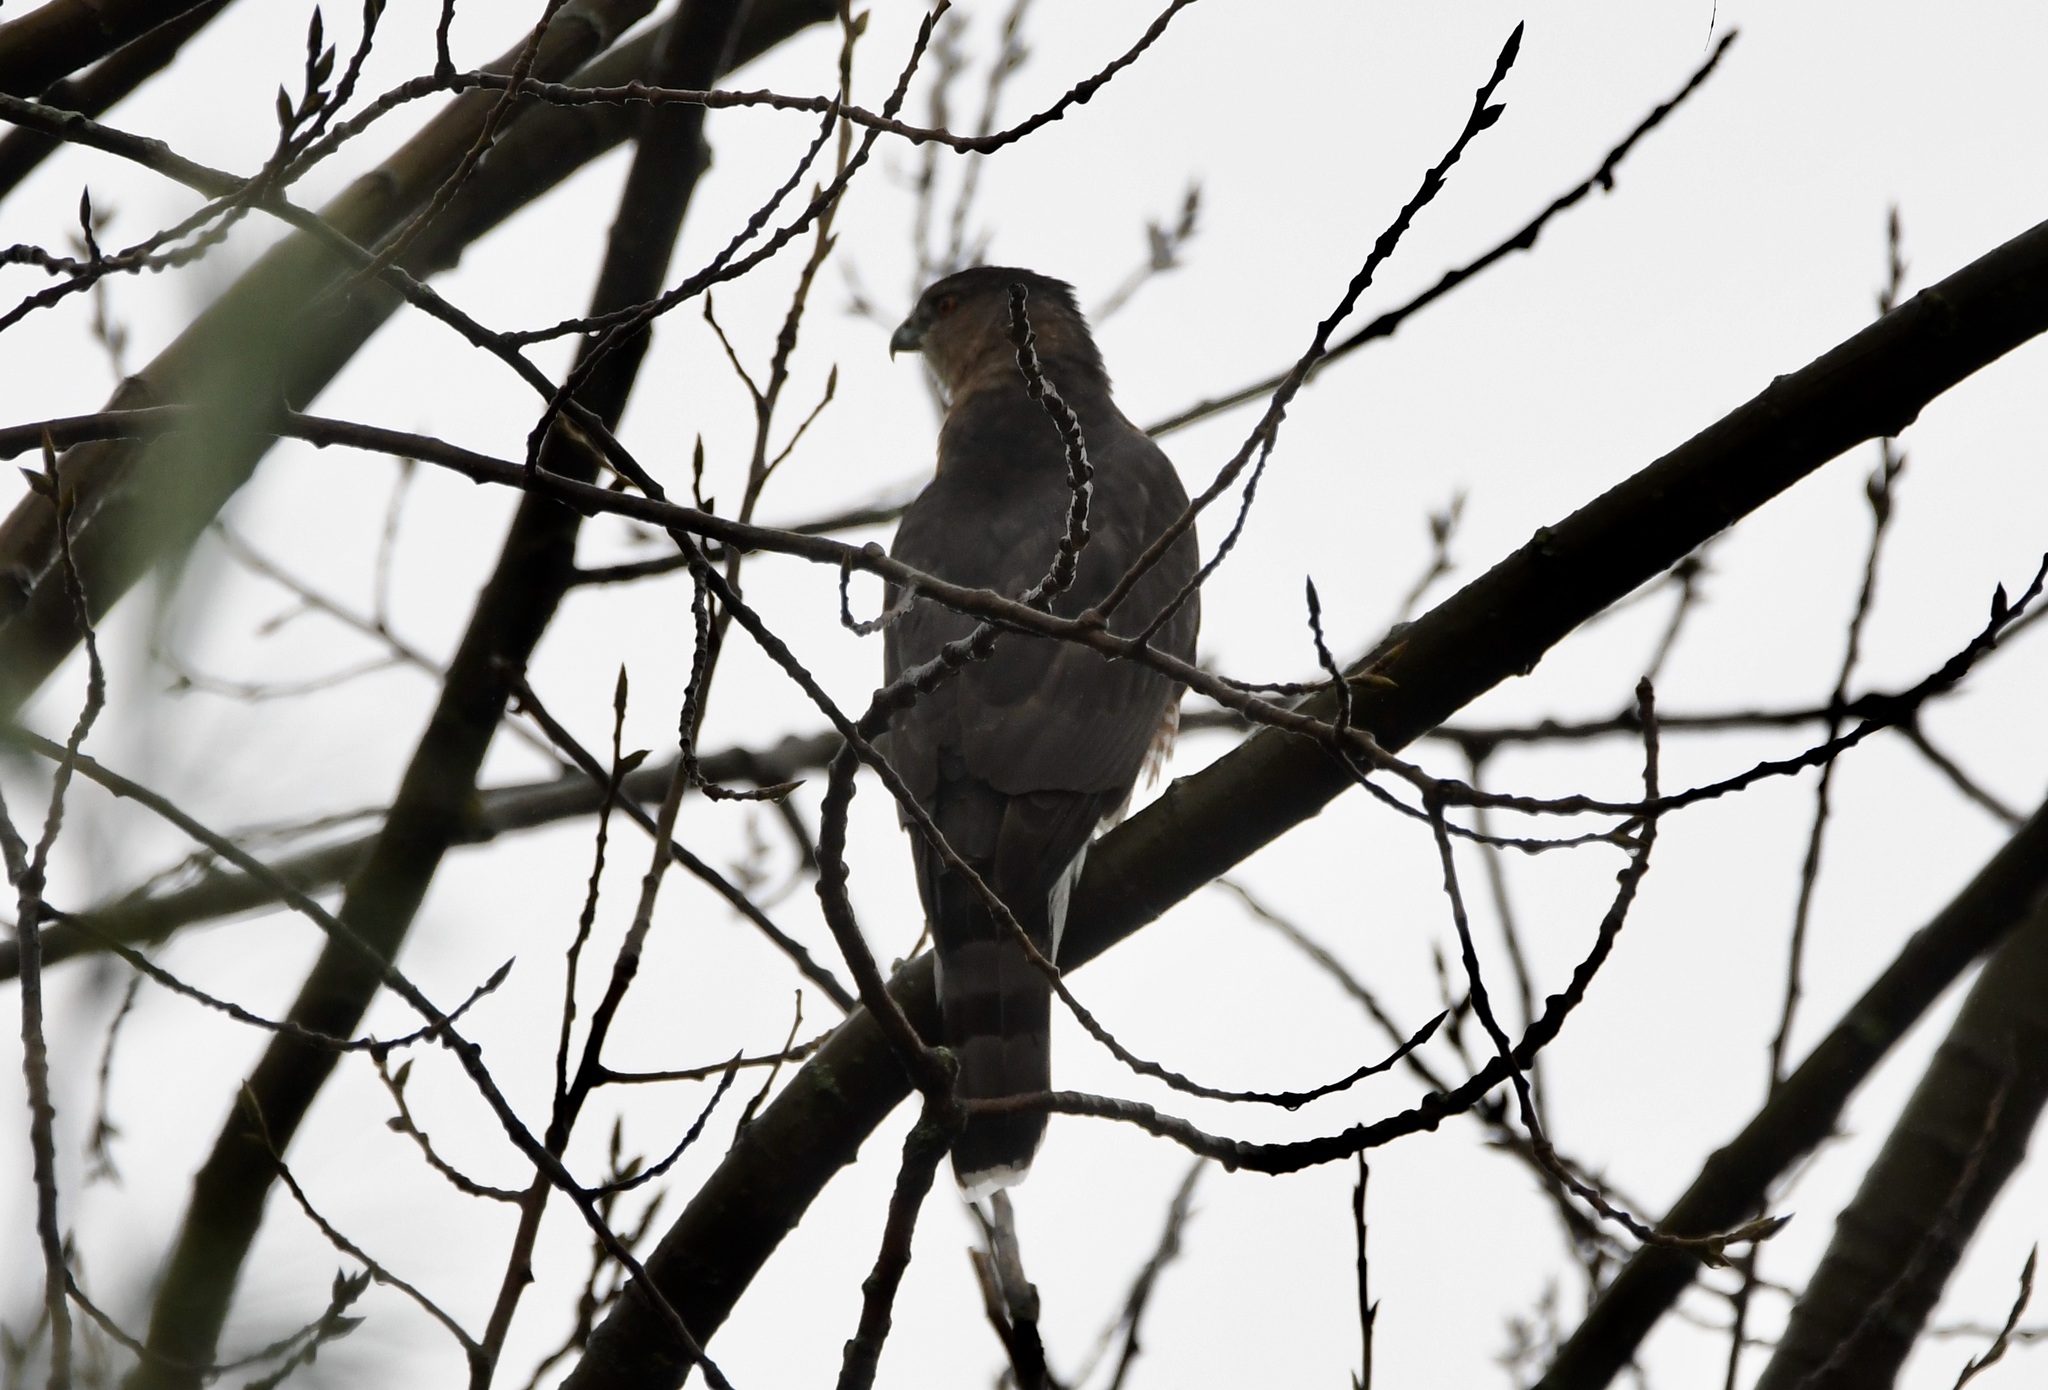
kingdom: Animalia
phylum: Chordata
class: Aves
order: Accipitriformes
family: Accipitridae
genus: Accipiter
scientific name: Accipiter cooperii
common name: Cooper's hawk
